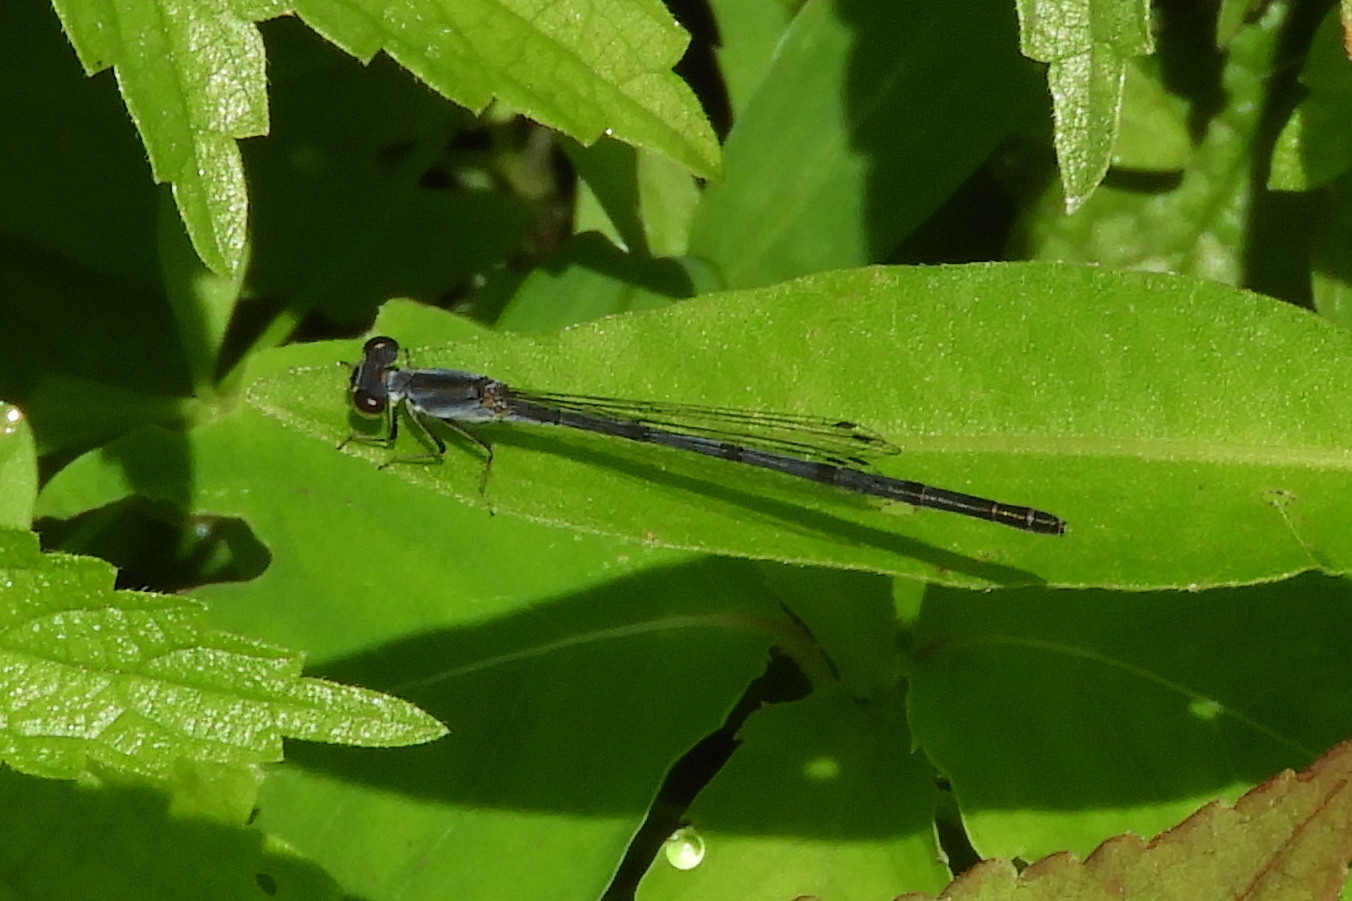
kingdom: Animalia
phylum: Arthropoda
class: Insecta
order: Odonata
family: Coenagrionidae
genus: Ischnura
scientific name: Ischnura posita
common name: Fragile forktail
